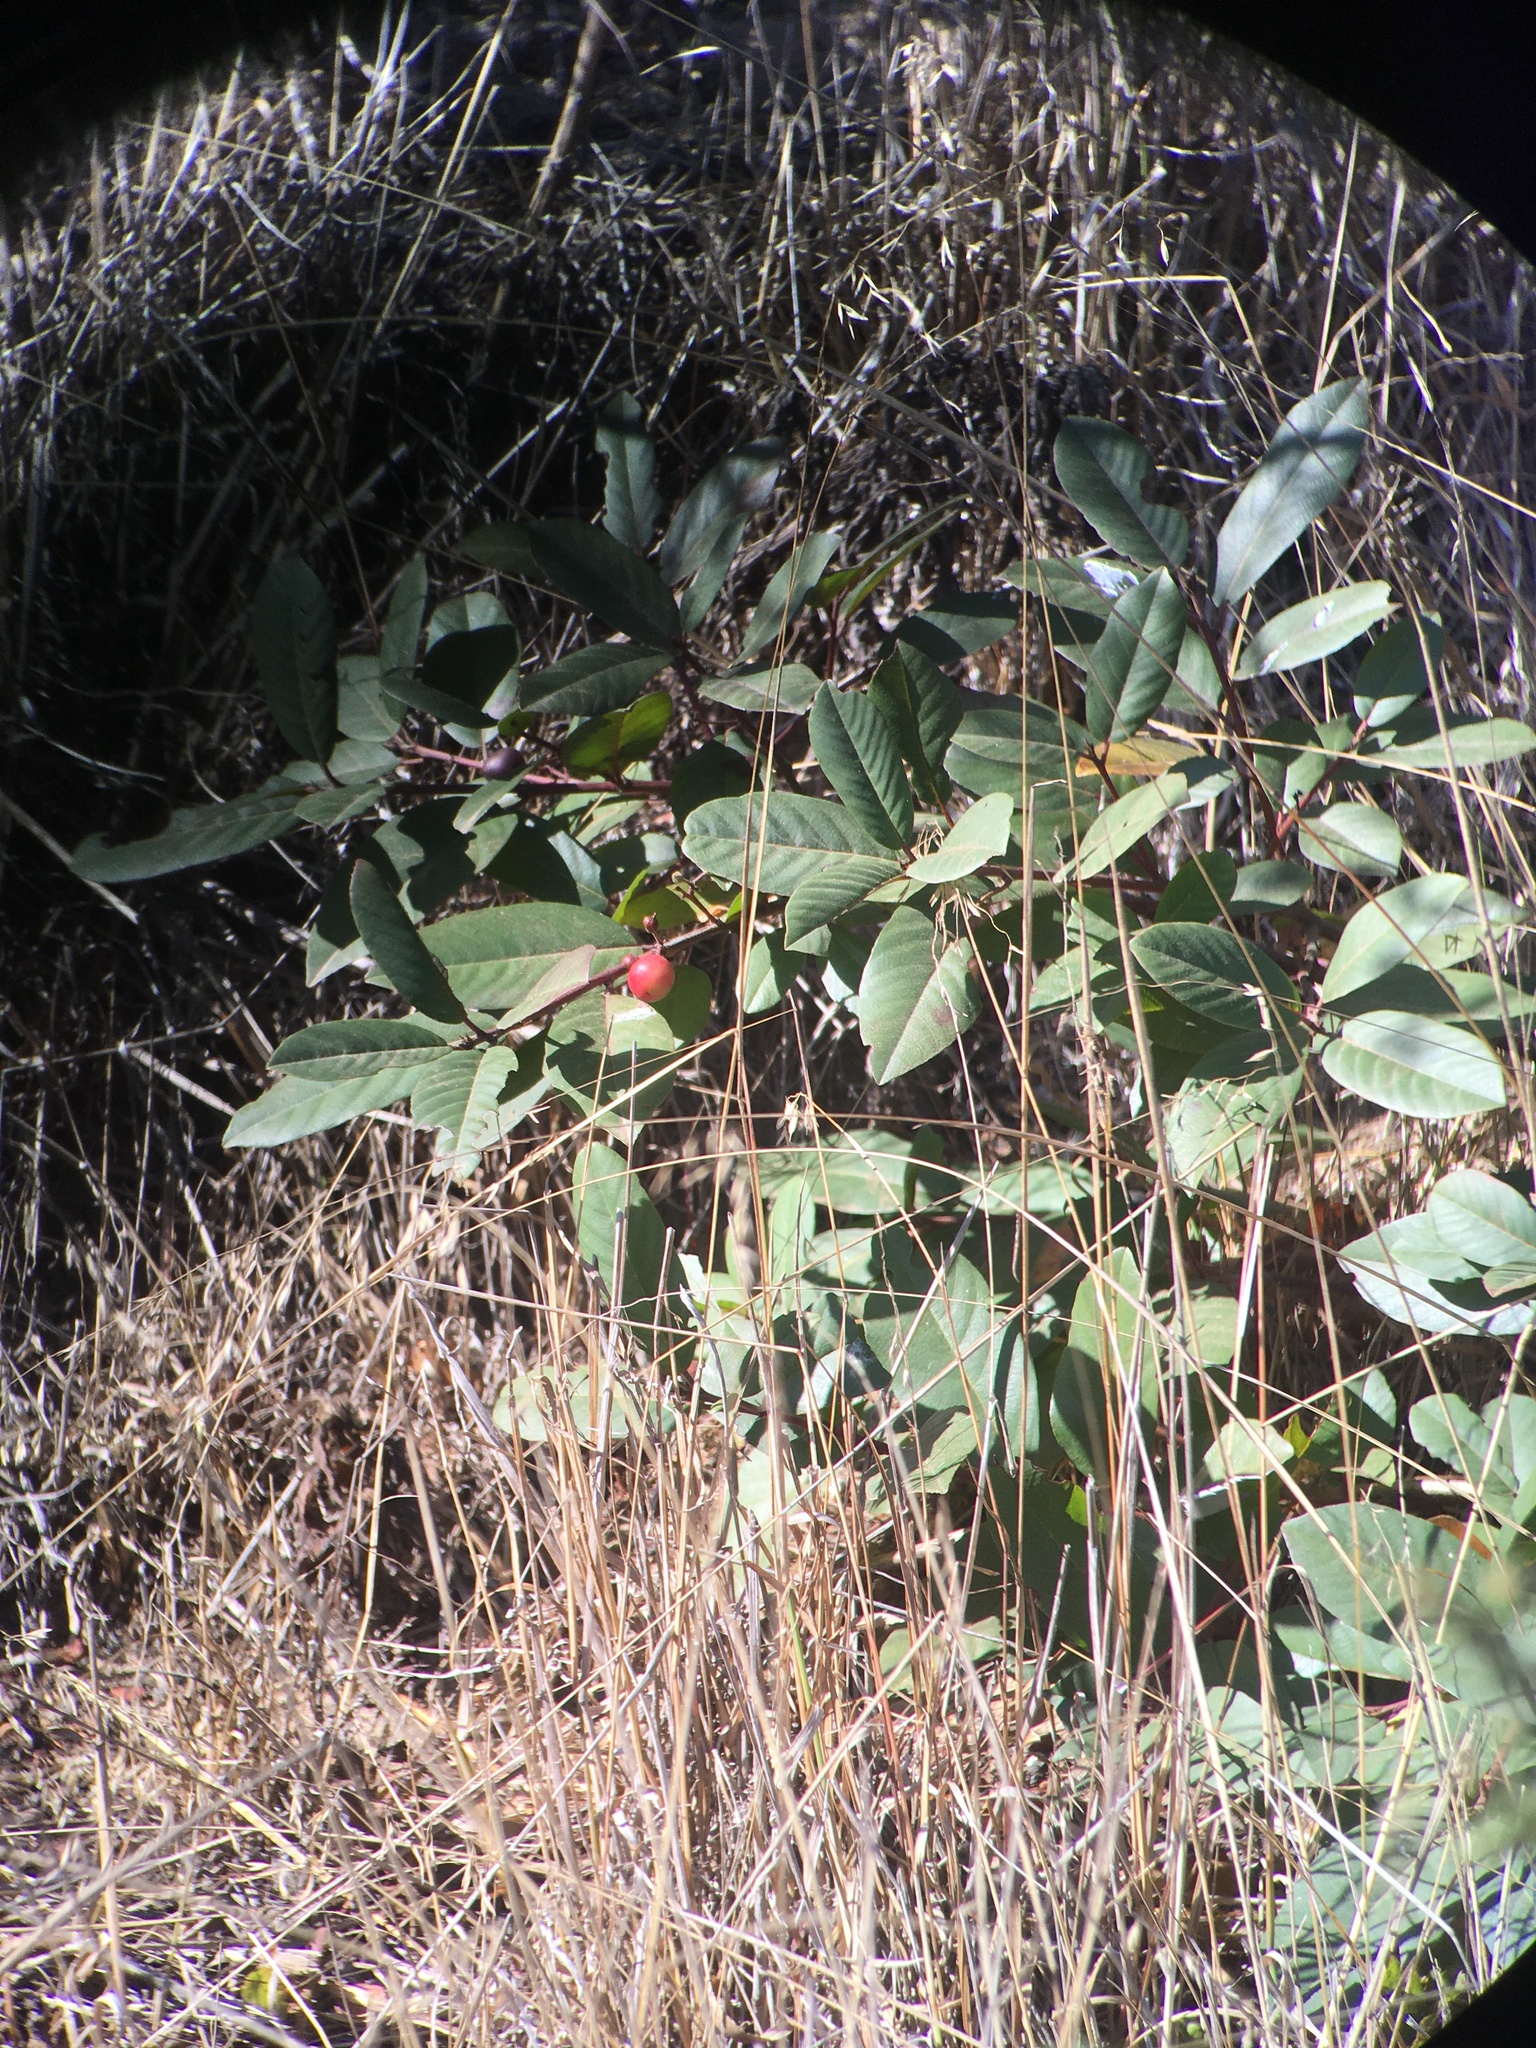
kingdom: Plantae
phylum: Tracheophyta
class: Magnoliopsida
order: Rosales
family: Rhamnaceae
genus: Frangula
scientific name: Frangula californica
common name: California buckthorn
